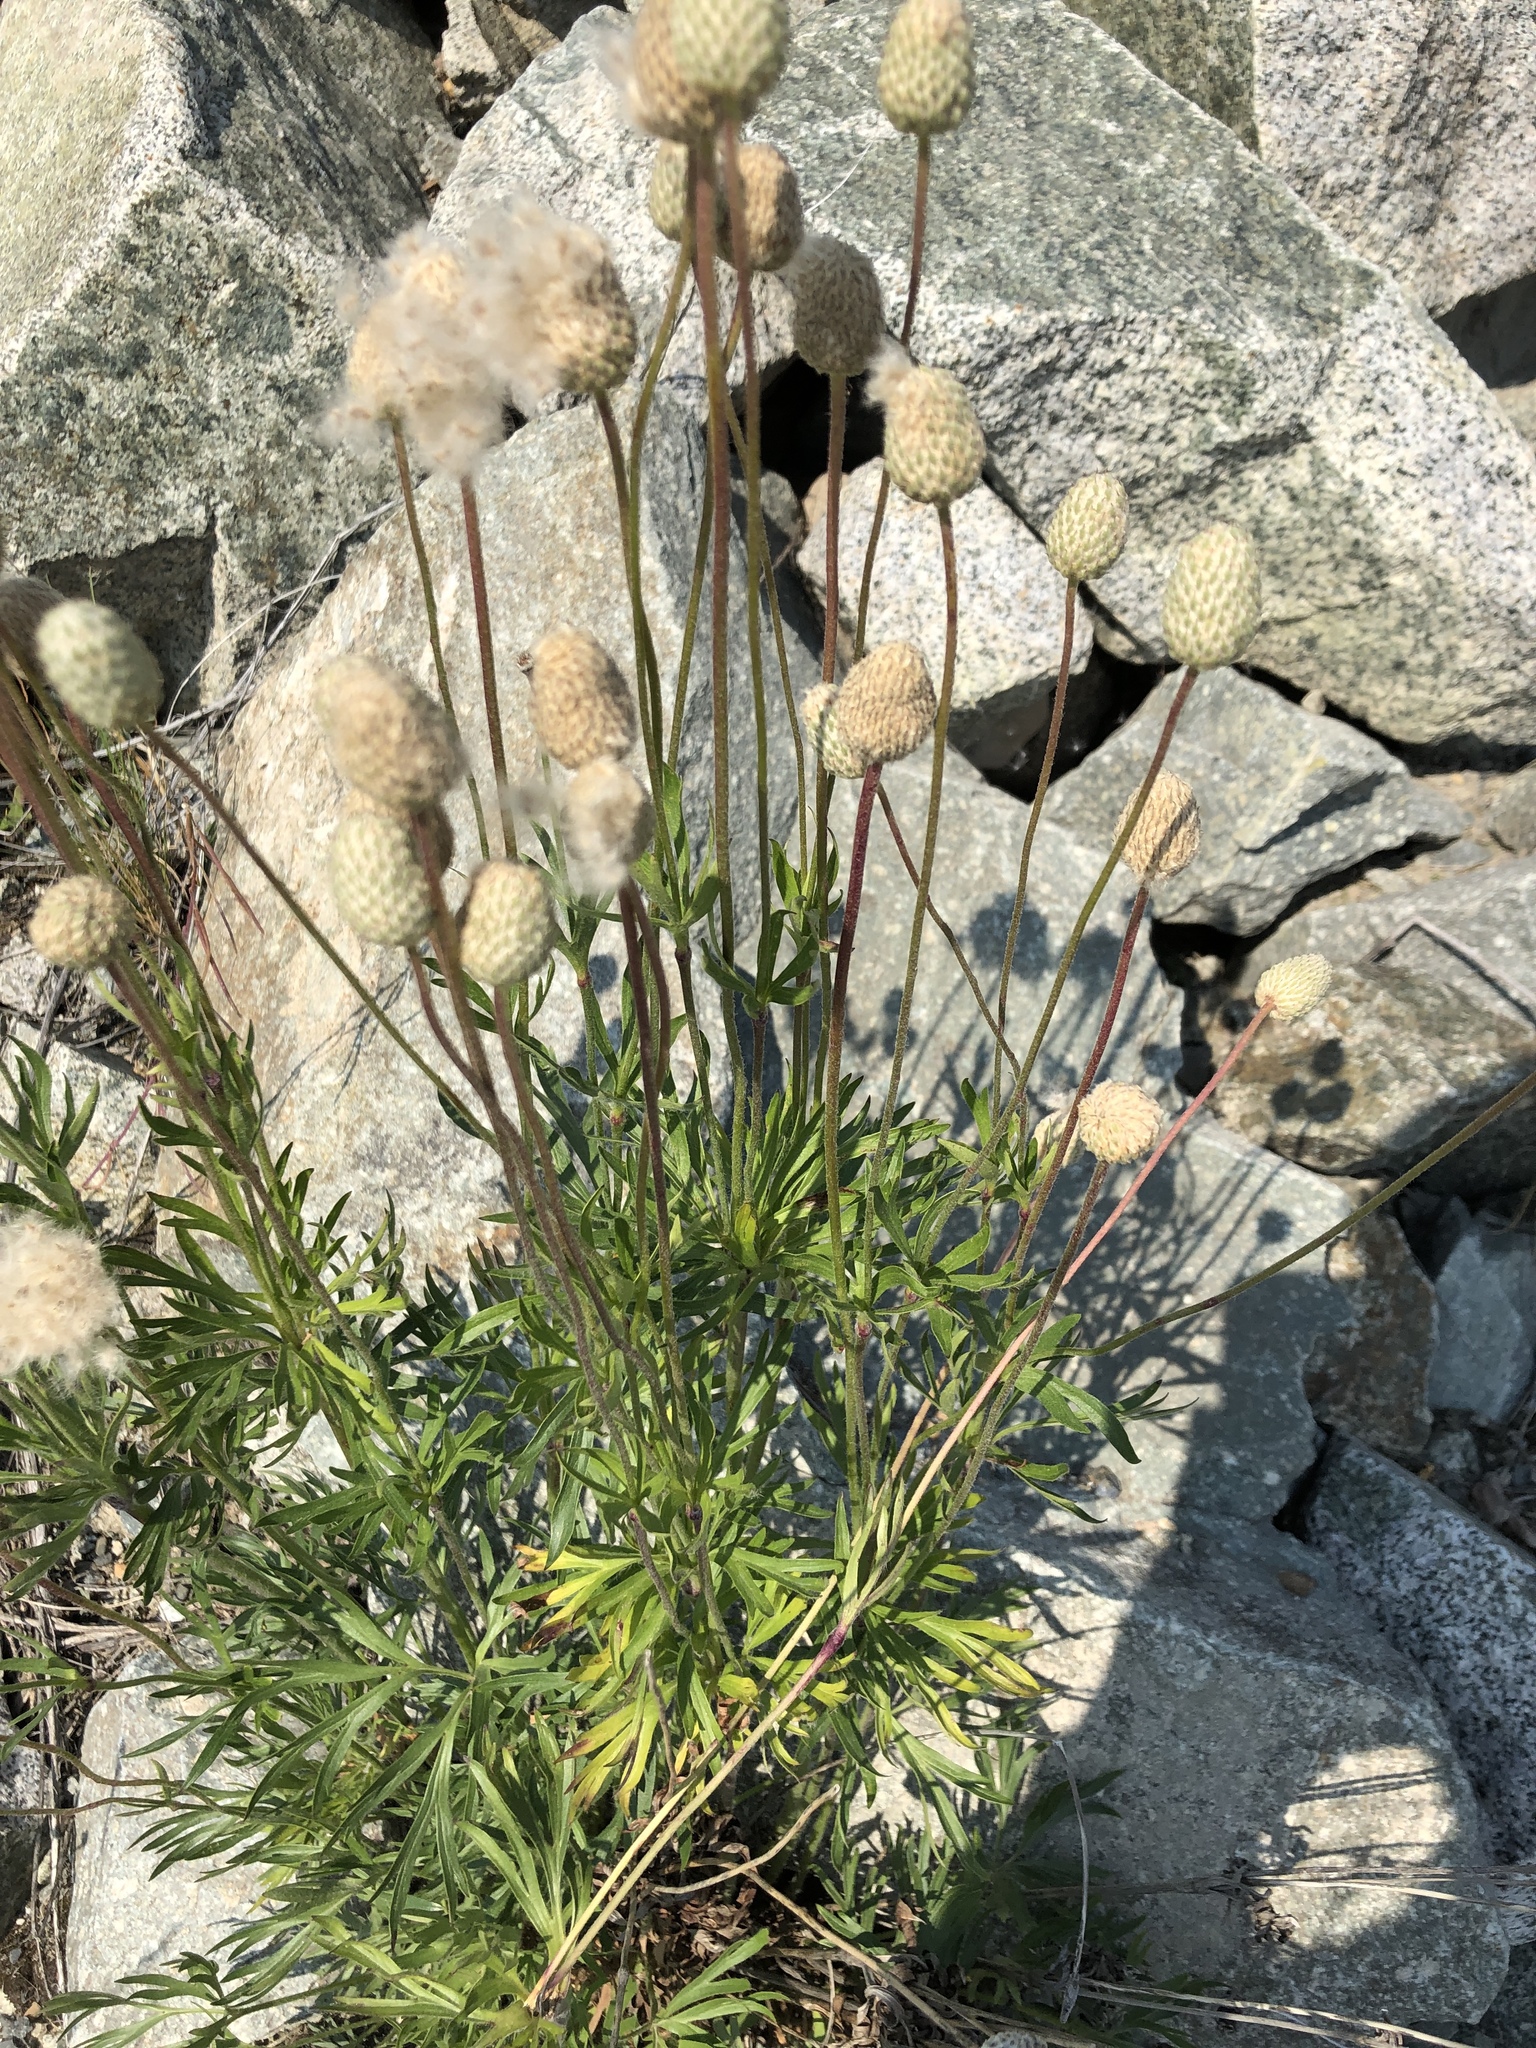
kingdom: Plantae
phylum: Tracheophyta
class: Magnoliopsida
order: Ranunculales
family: Ranunculaceae
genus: Anemone
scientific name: Anemone multifida
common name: Bird's-foot anemone
